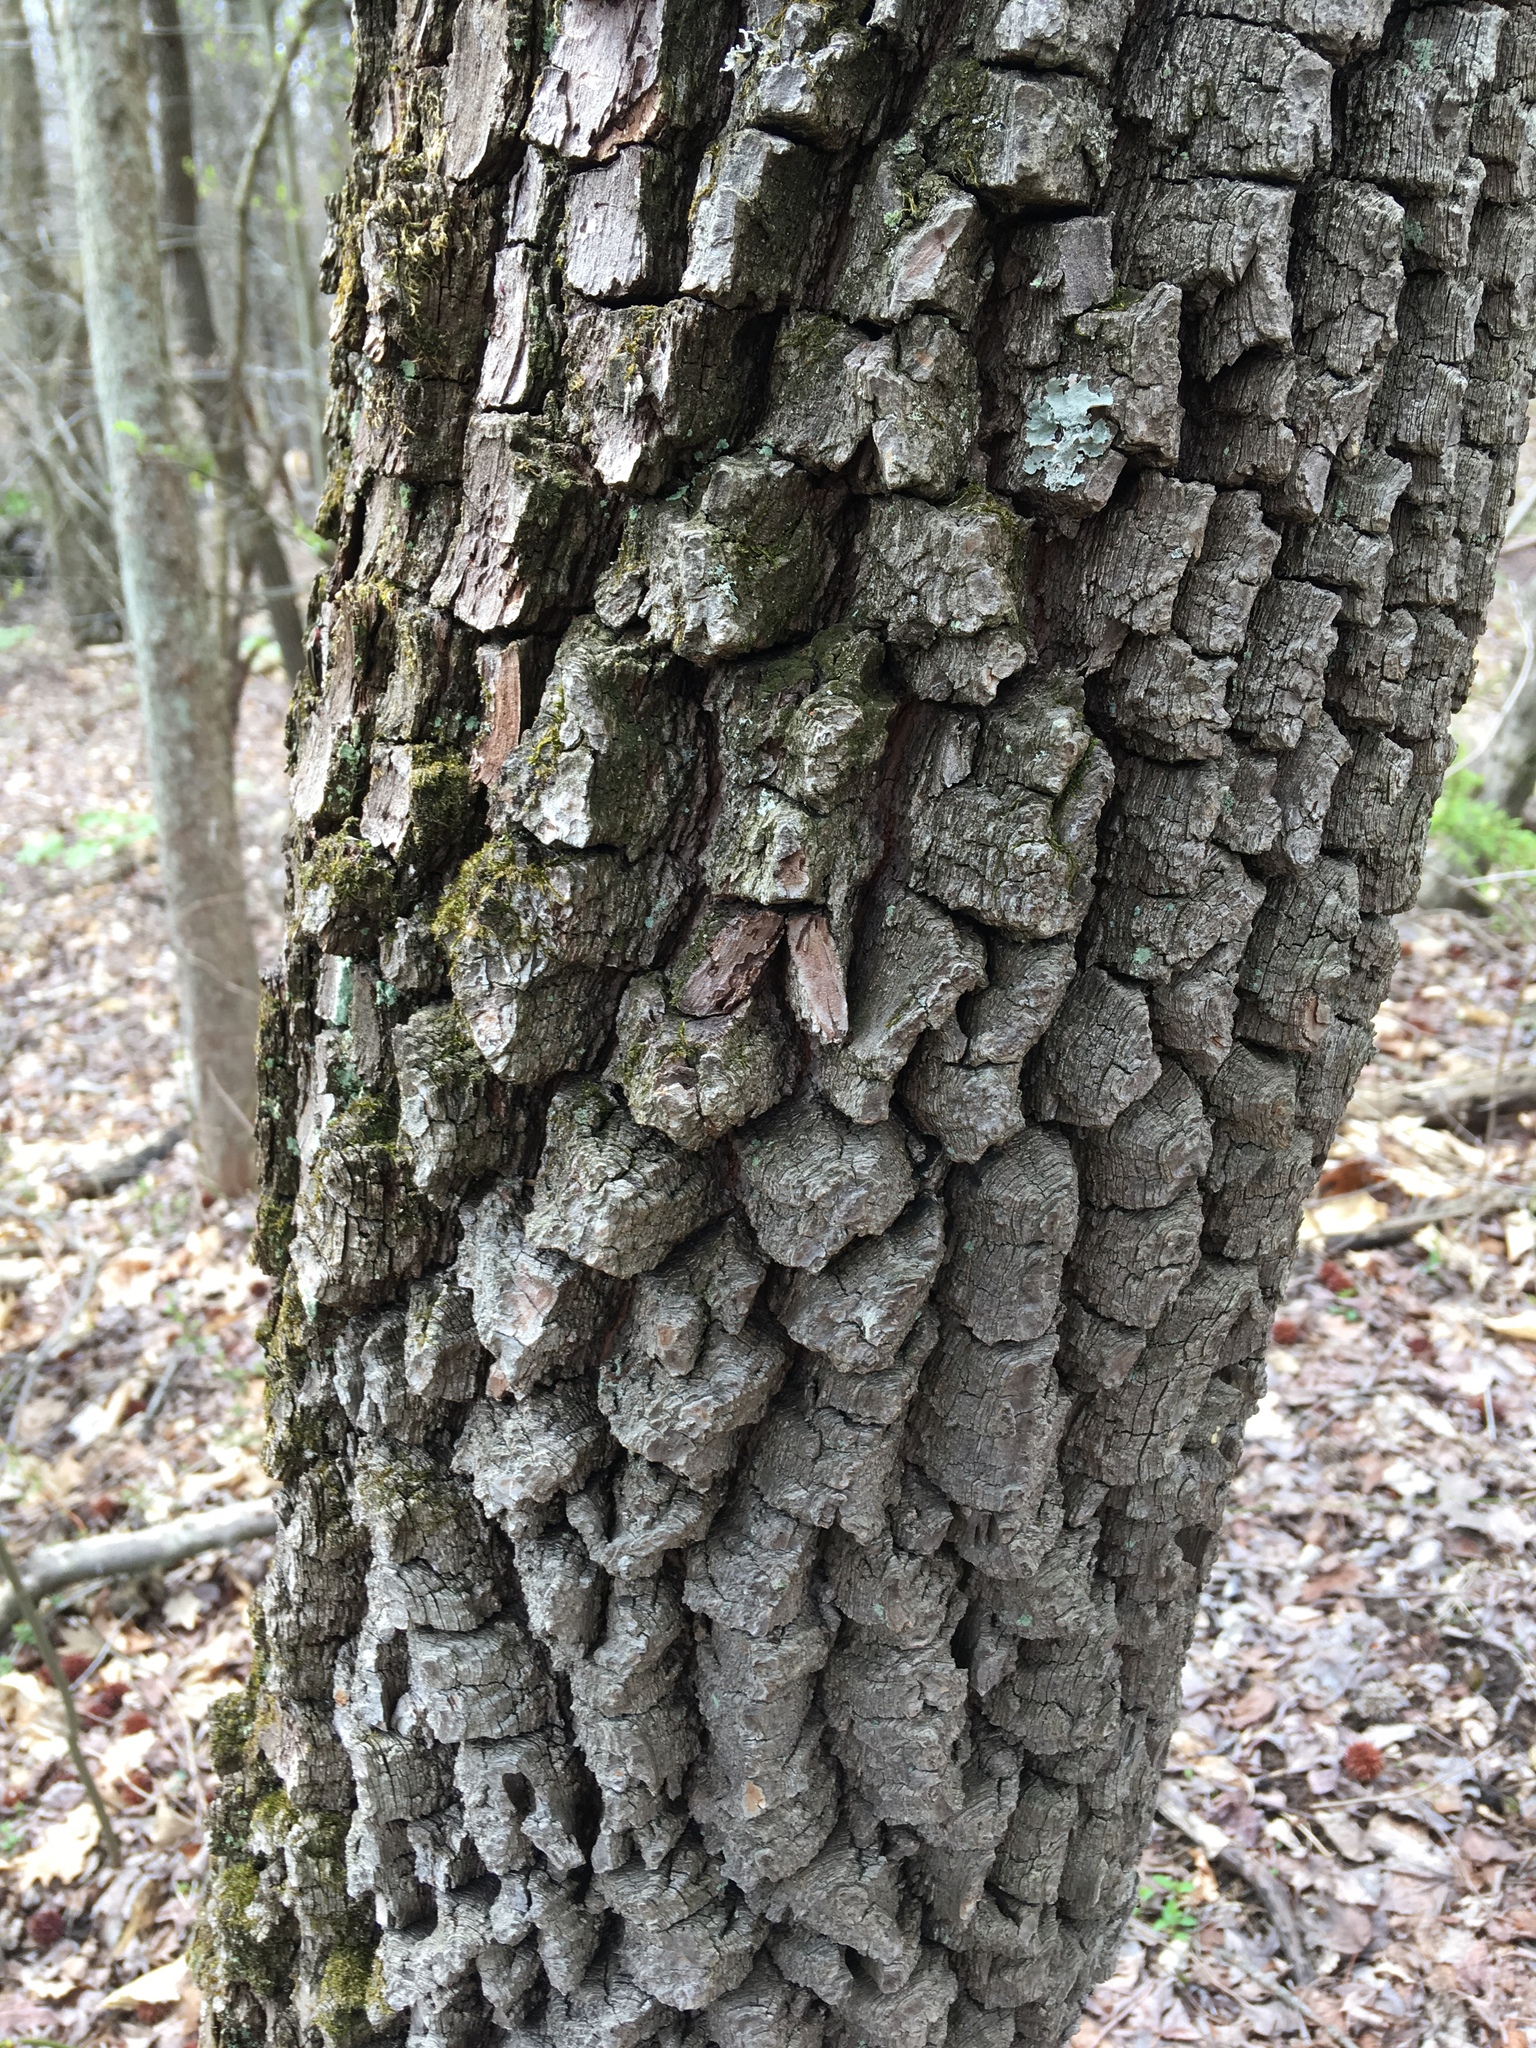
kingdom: Plantae
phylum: Tracheophyta
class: Magnoliopsida
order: Ericales
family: Ebenaceae
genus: Diospyros
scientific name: Diospyros virginiana
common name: Persimmon
